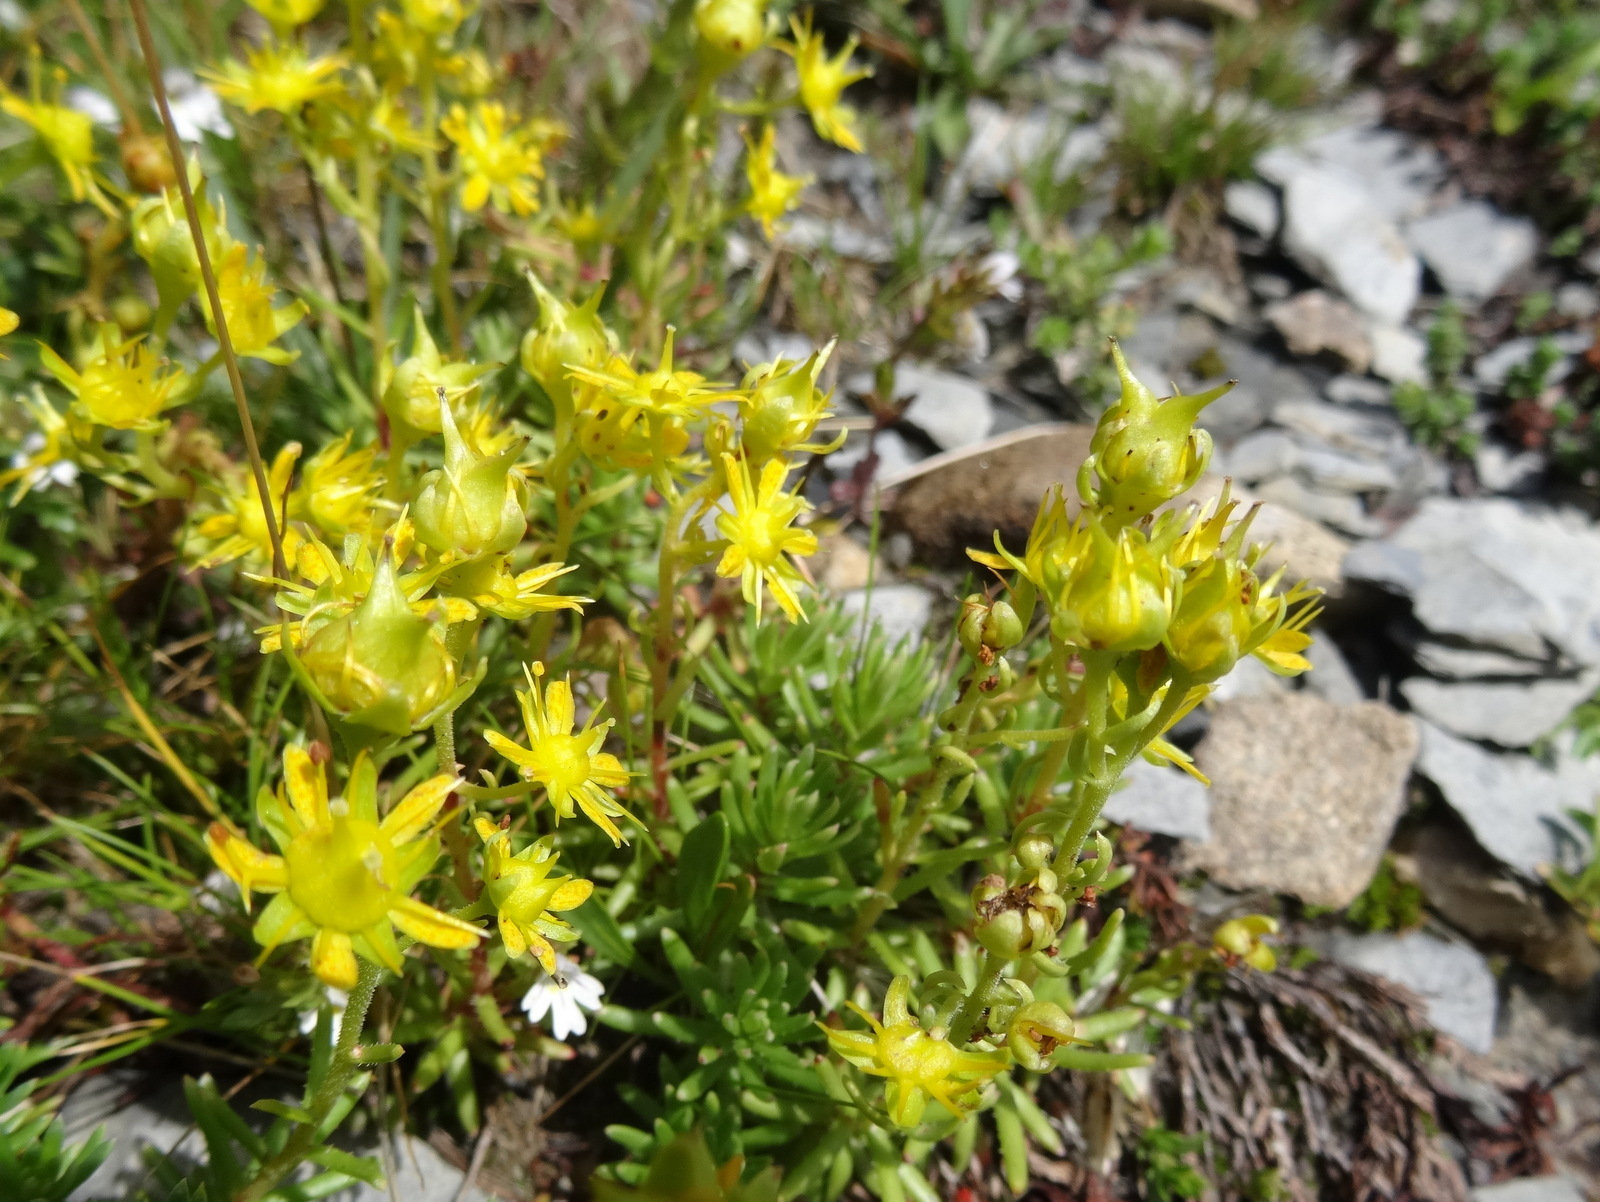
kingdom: Plantae
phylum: Tracheophyta
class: Magnoliopsida
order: Saxifragales
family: Saxifragaceae
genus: Saxifraga
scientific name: Saxifraga aizoides
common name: Yellow mountain saxifrage
